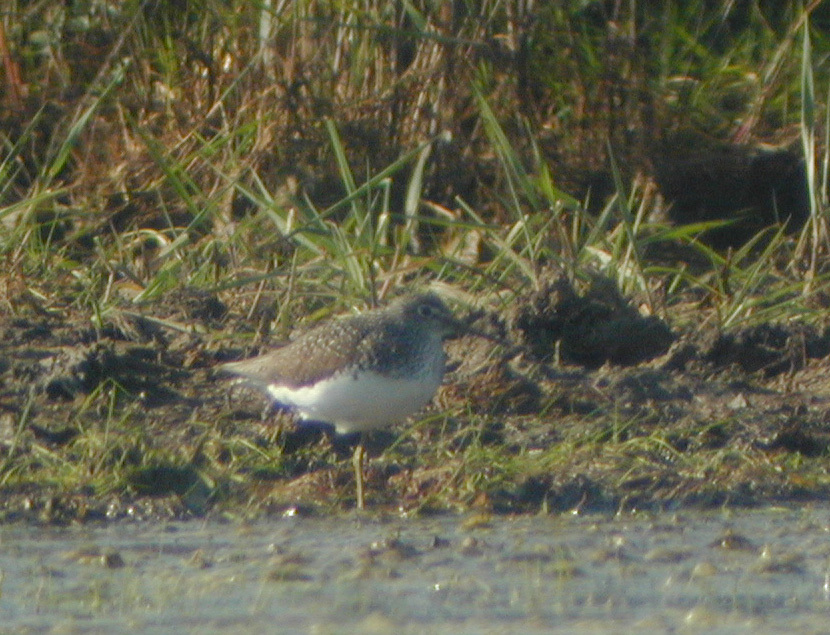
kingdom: Animalia
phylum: Chordata
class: Aves
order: Charadriiformes
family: Scolopacidae
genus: Tringa
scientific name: Tringa ochropus
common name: Green sandpiper
